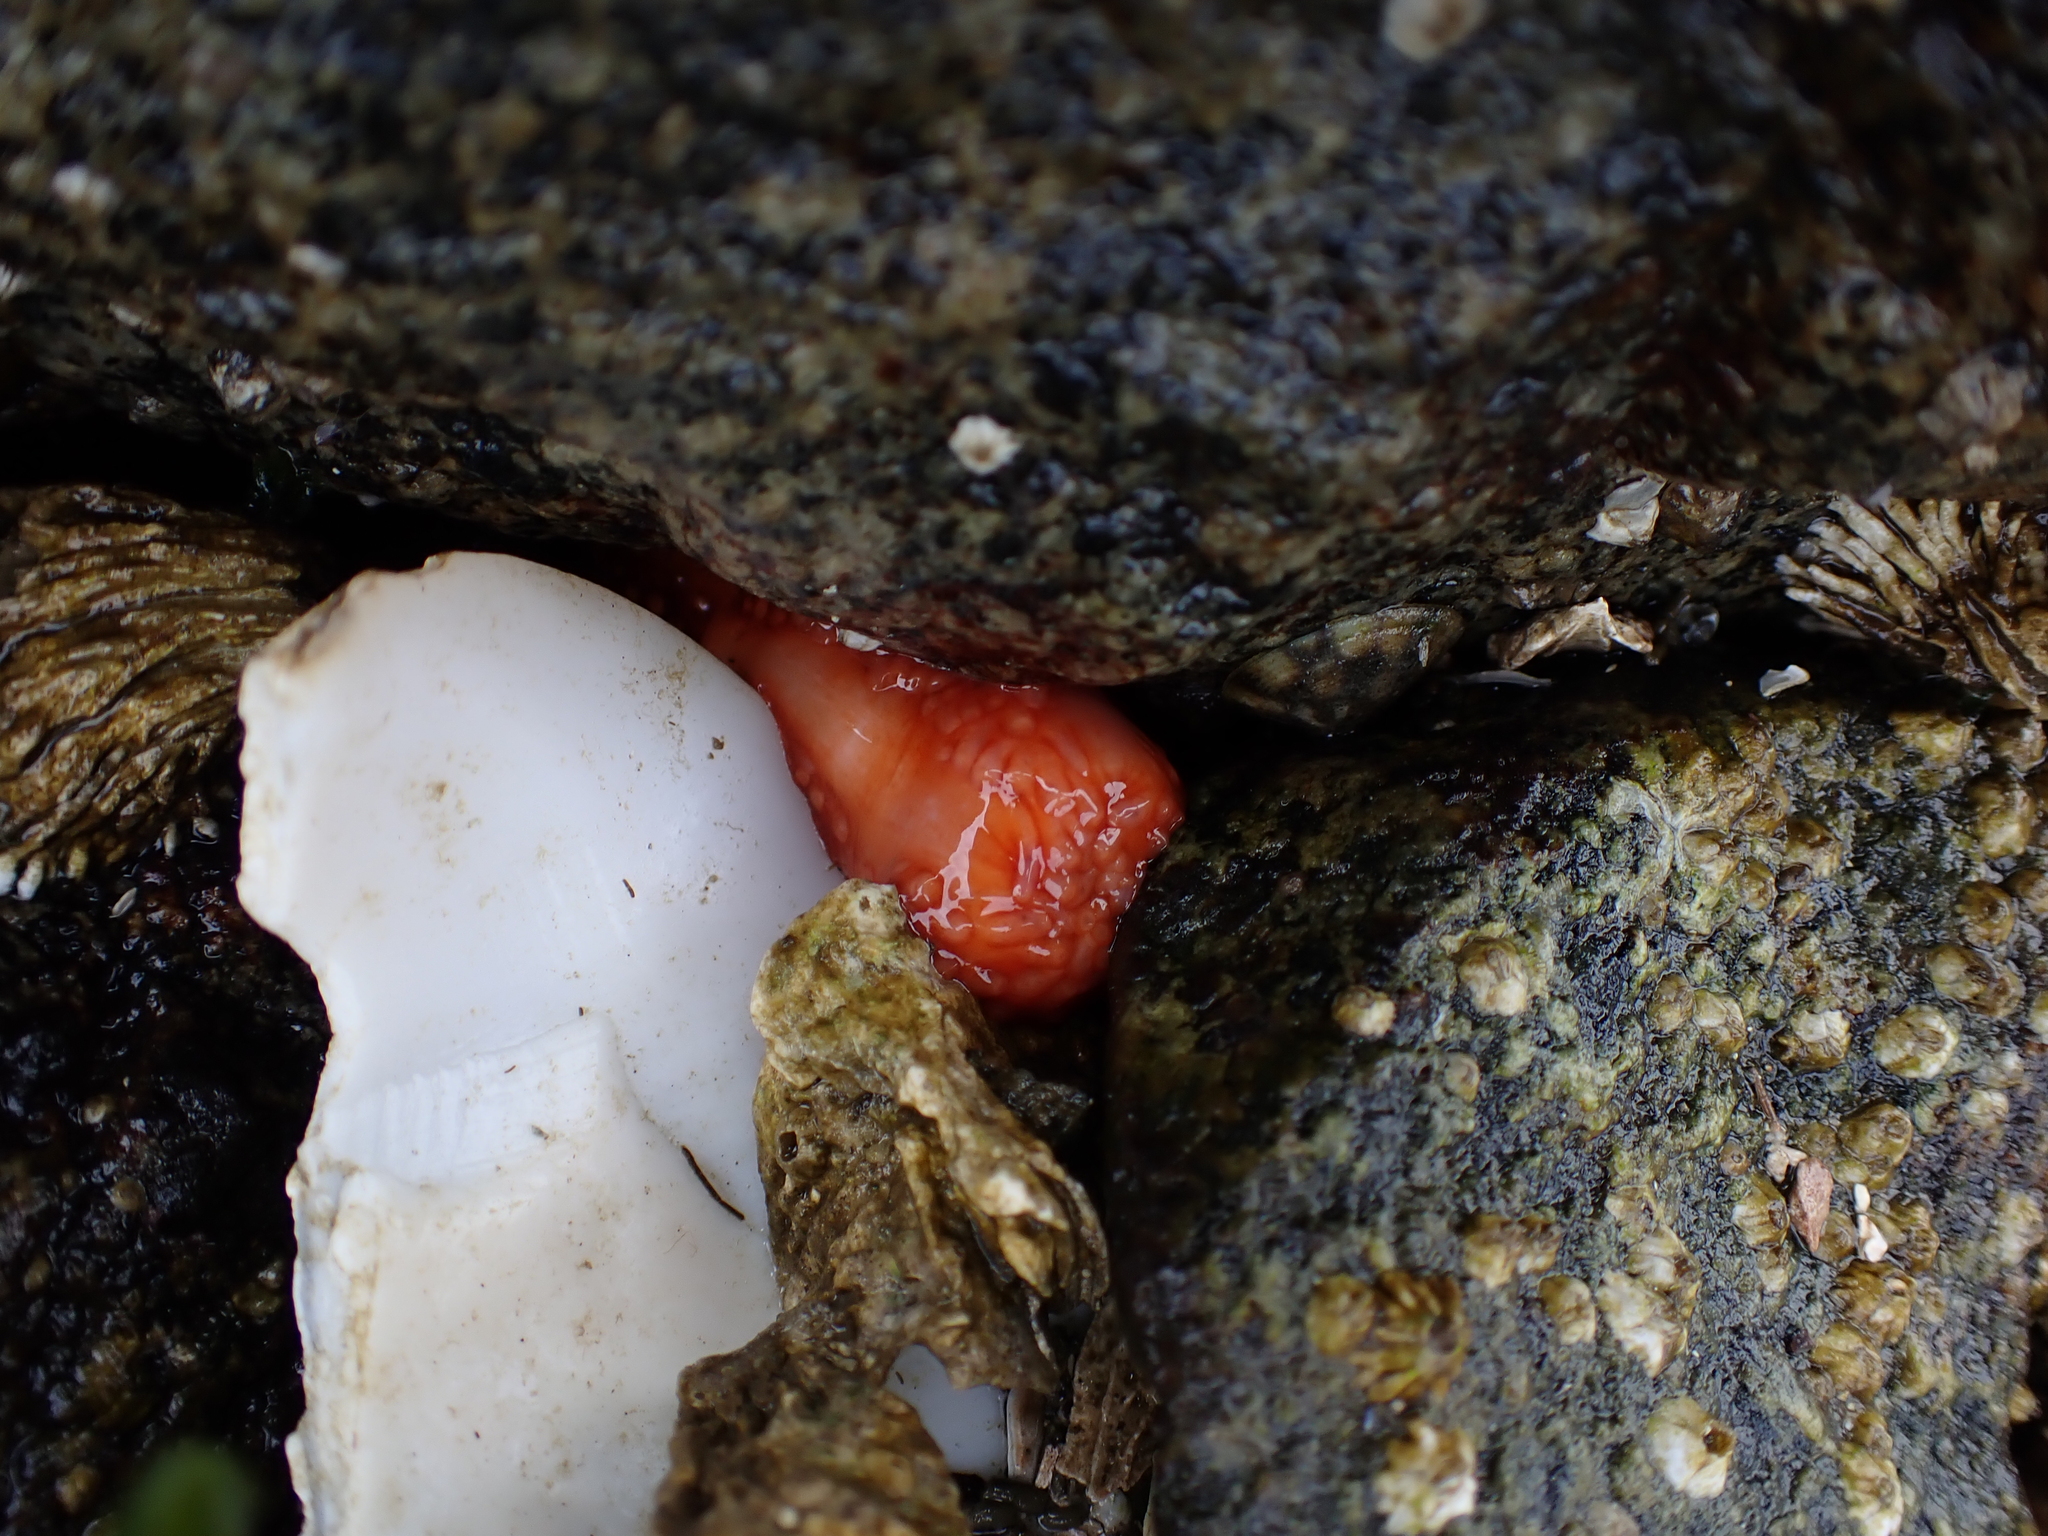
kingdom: Animalia
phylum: Echinodermata
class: Holothuroidea
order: Dendrochirotida
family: Cucumariidae
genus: Cucumaria
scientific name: Cucumaria miniata
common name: Orange sea cucumber
